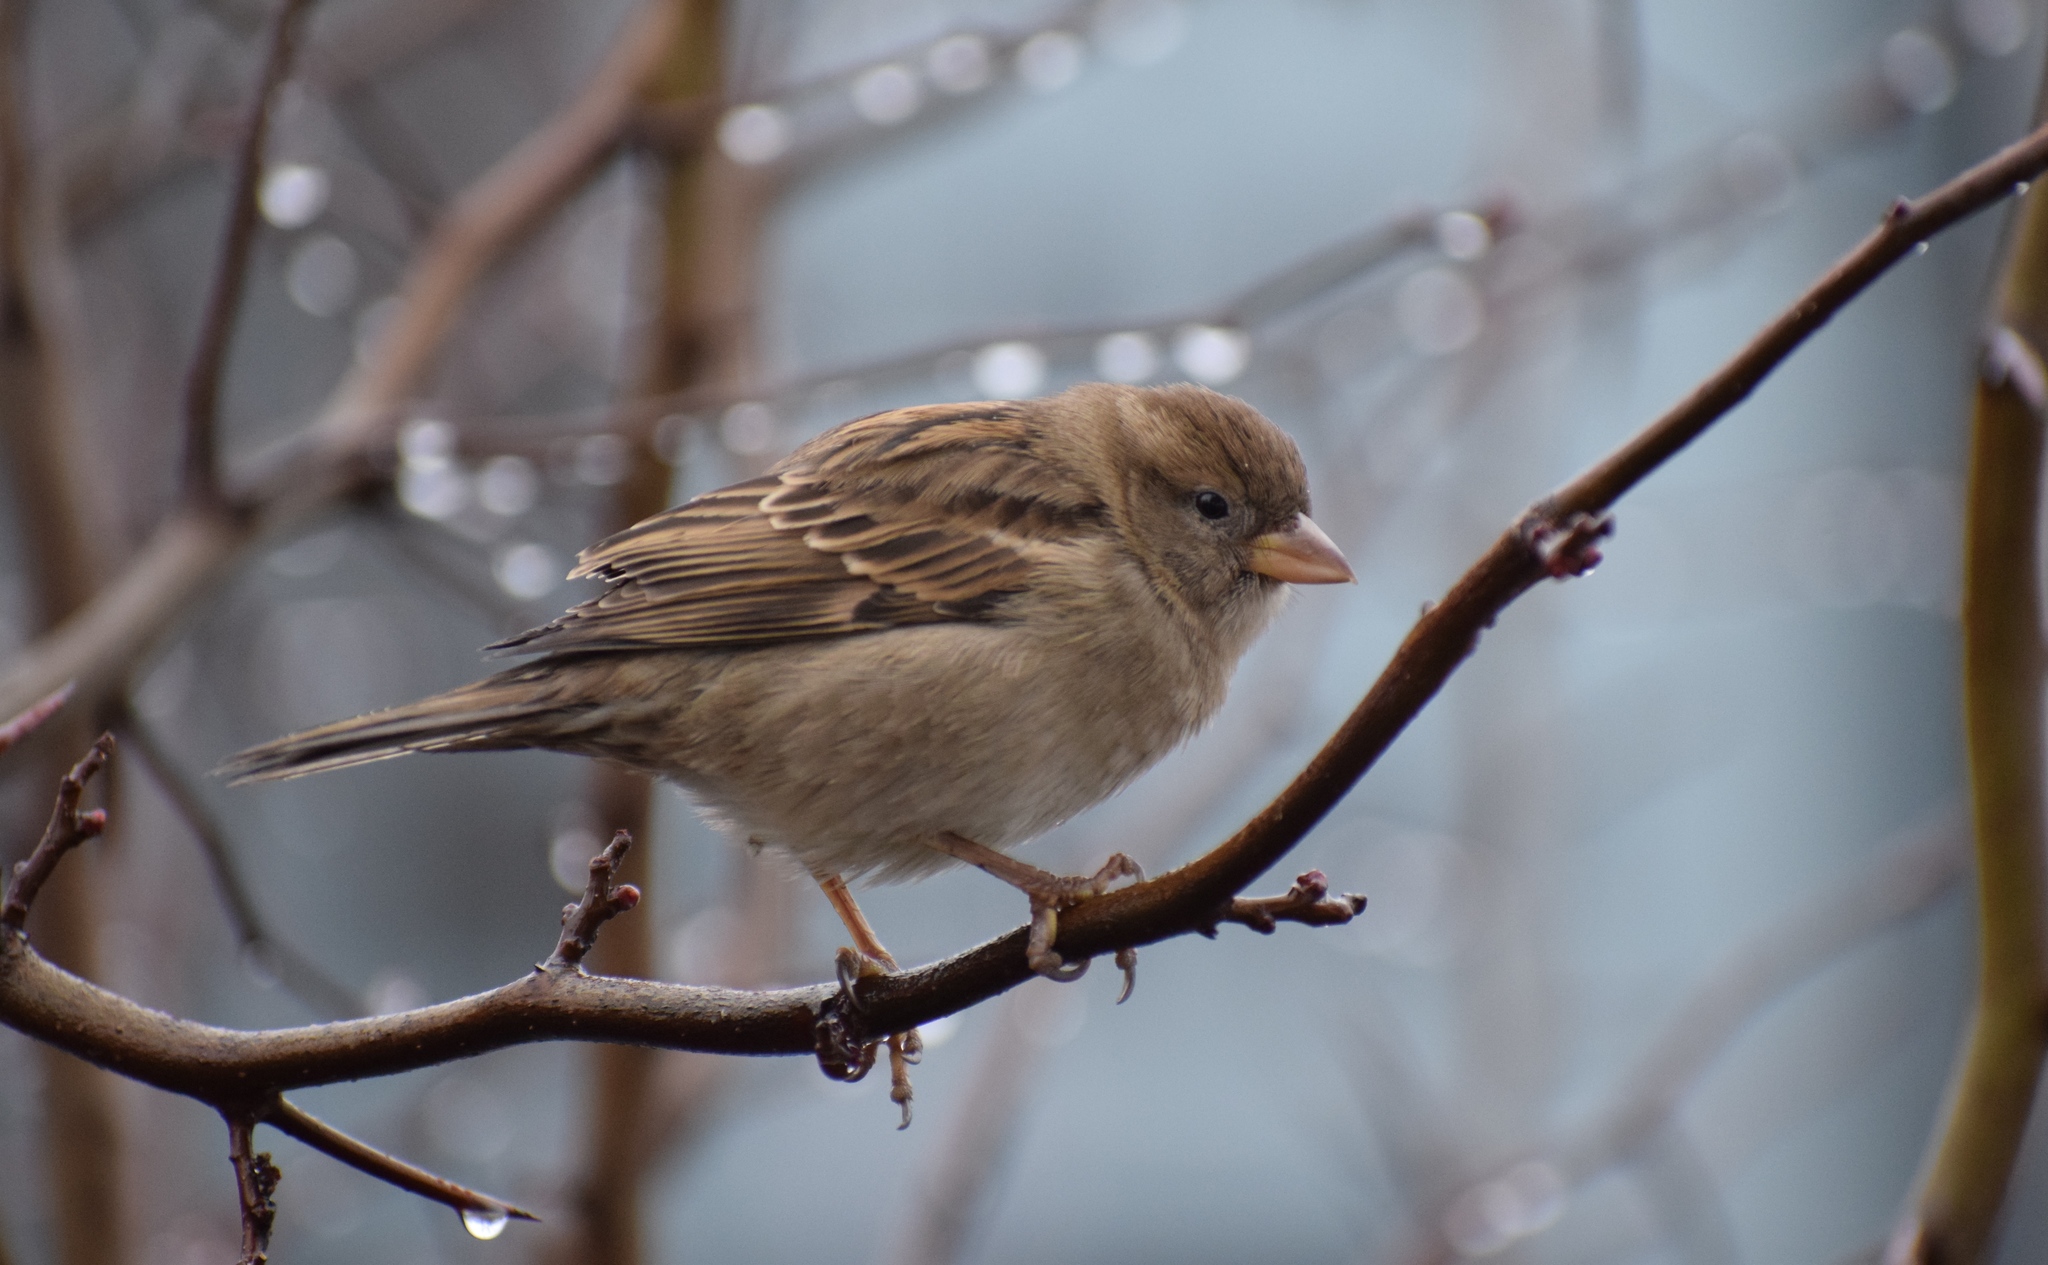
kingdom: Animalia
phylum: Chordata
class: Aves
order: Passeriformes
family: Passeridae
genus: Passer
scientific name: Passer domesticus
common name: House sparrow
